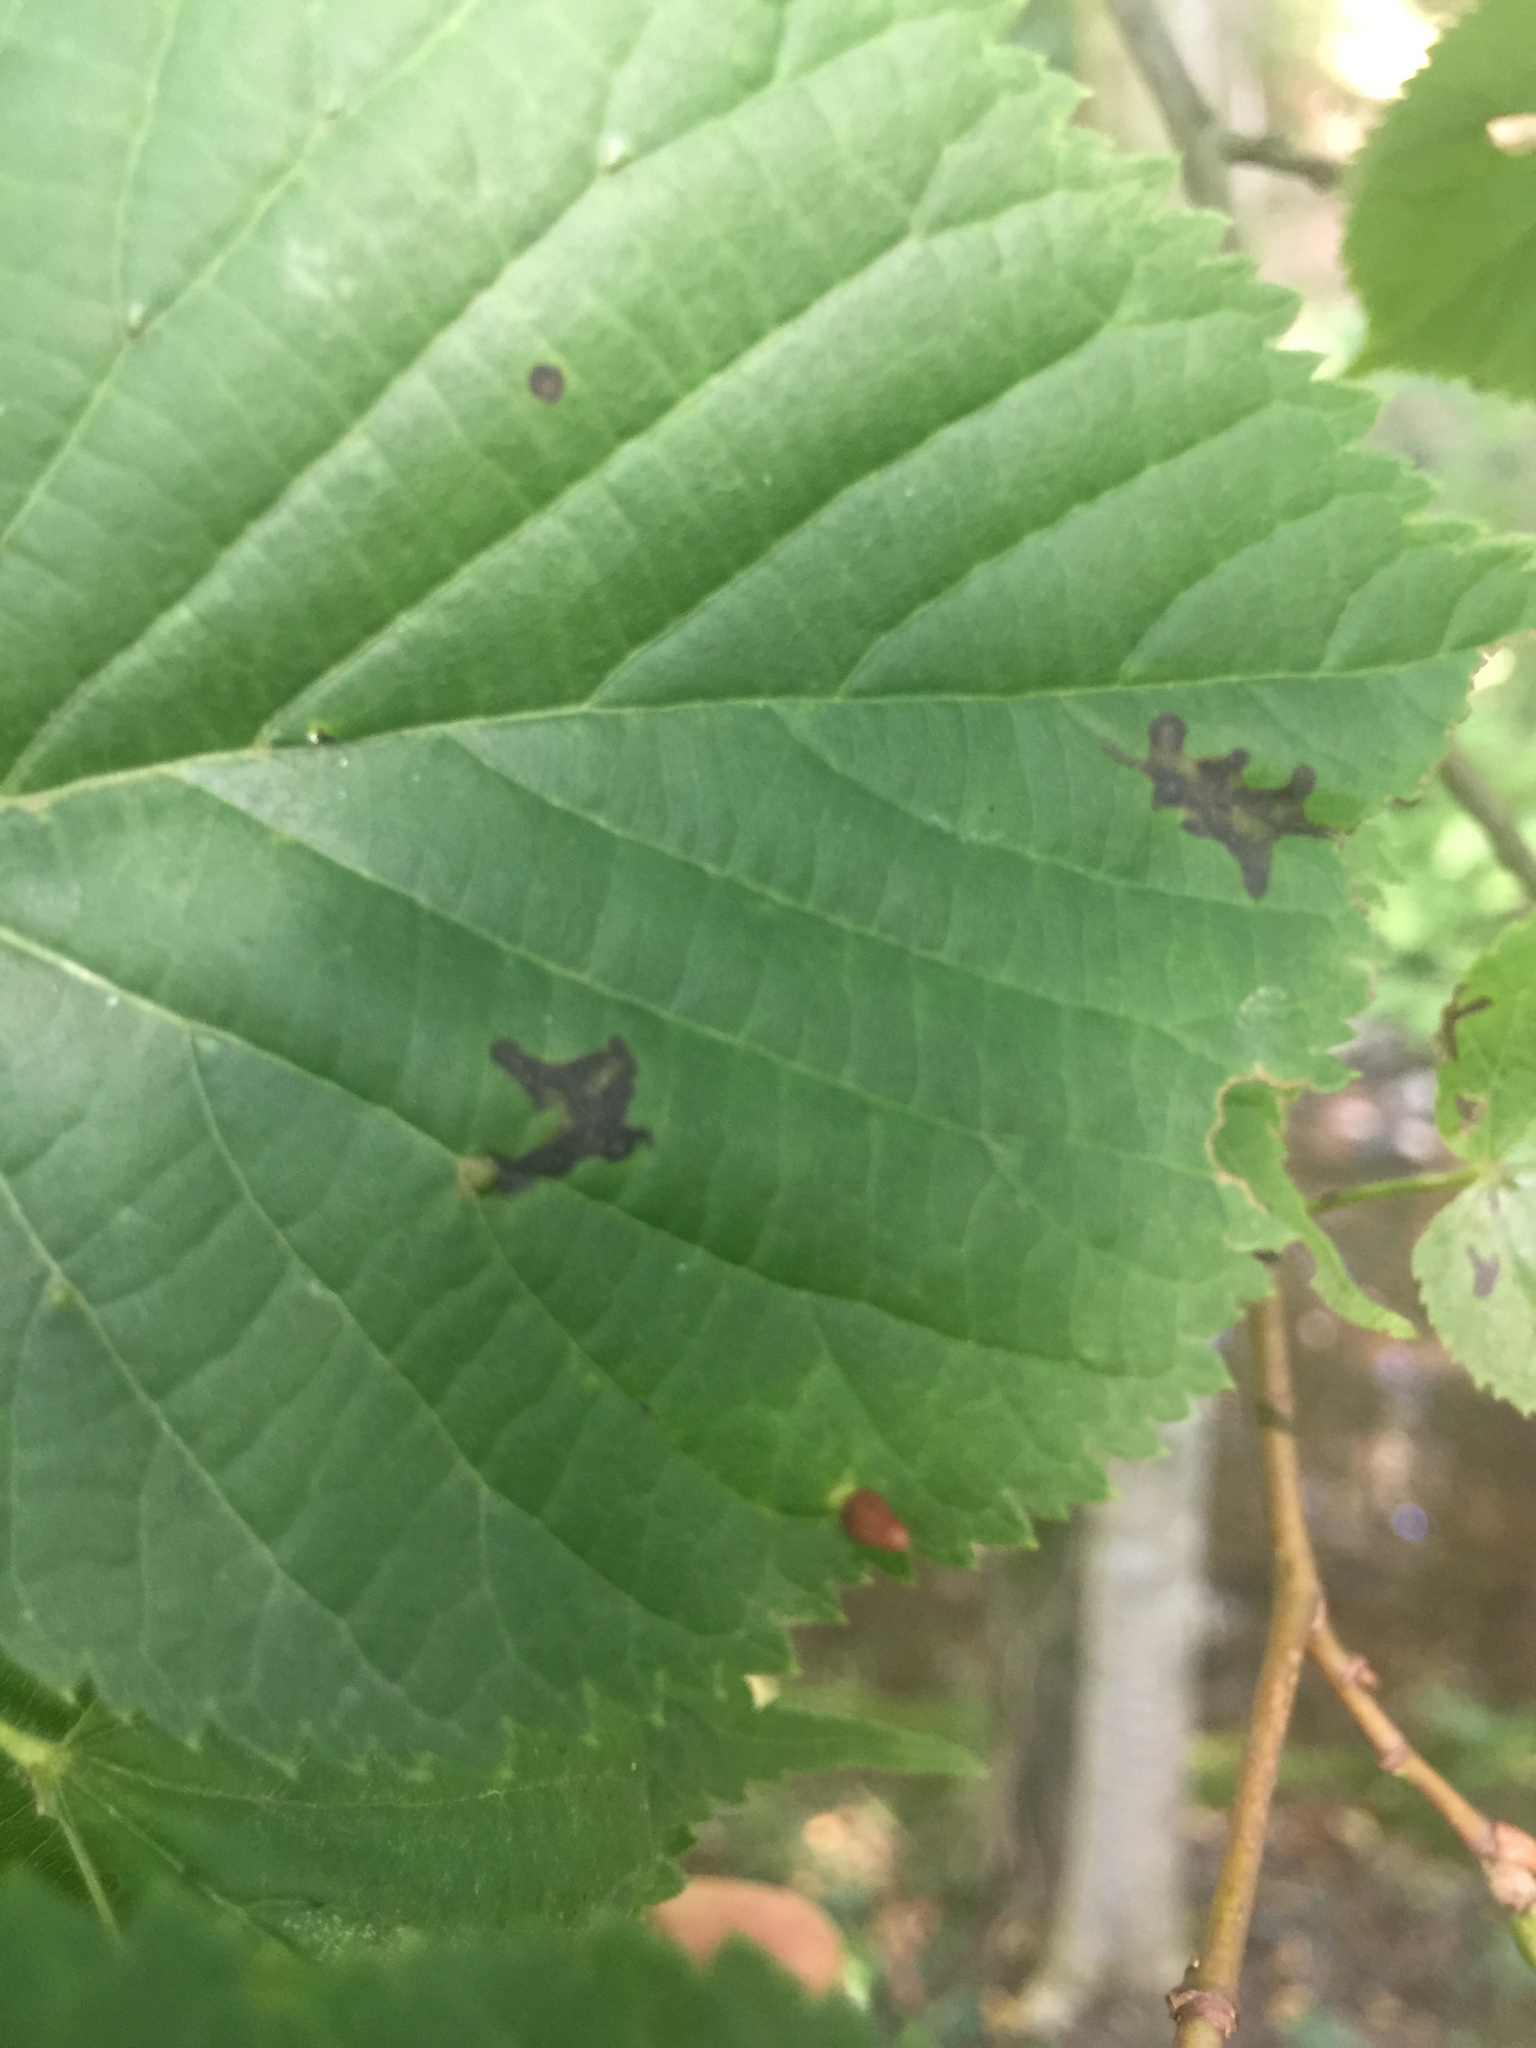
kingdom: Animalia
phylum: Arthropoda
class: Arachnida
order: Trombidiformes
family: Eriophyidae
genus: Eriophyes
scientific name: Eriophyes tiliae
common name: Red nail gall mite
